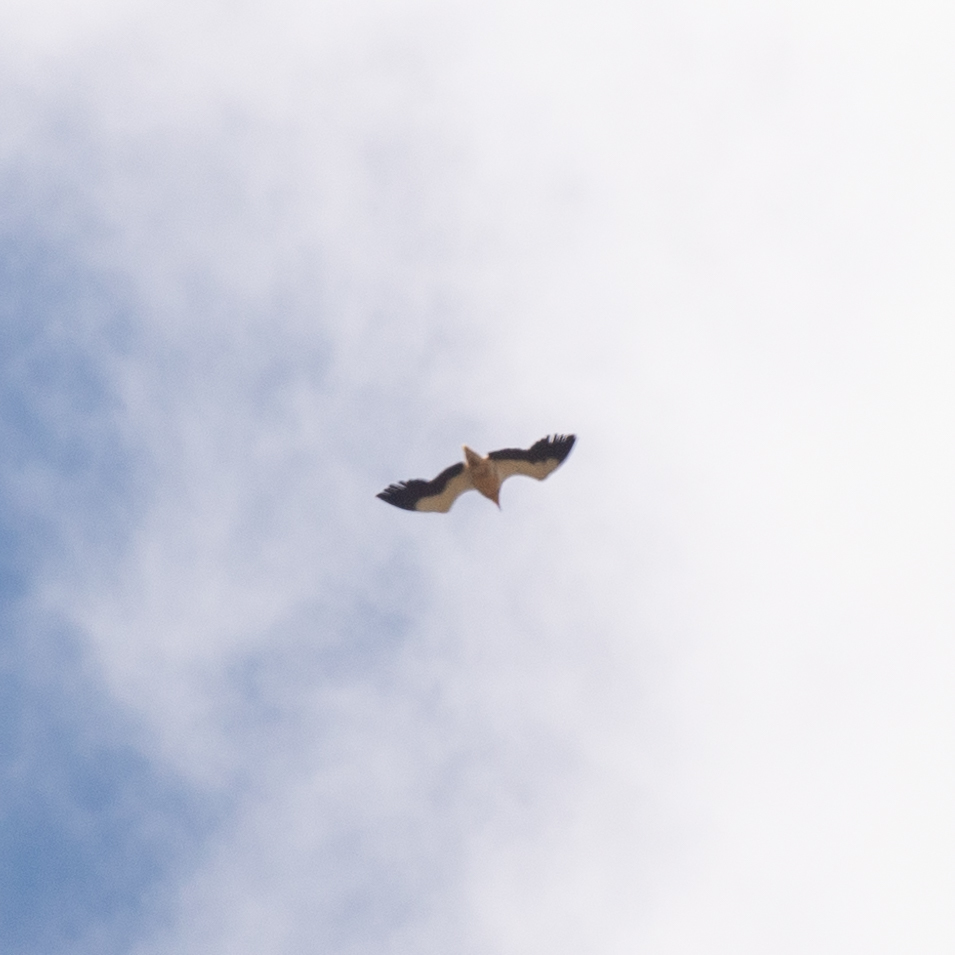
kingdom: Animalia
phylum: Chordata
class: Aves
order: Accipitriformes
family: Accipitridae
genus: Neophron
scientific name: Neophron percnopterus
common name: Egyptian vulture
